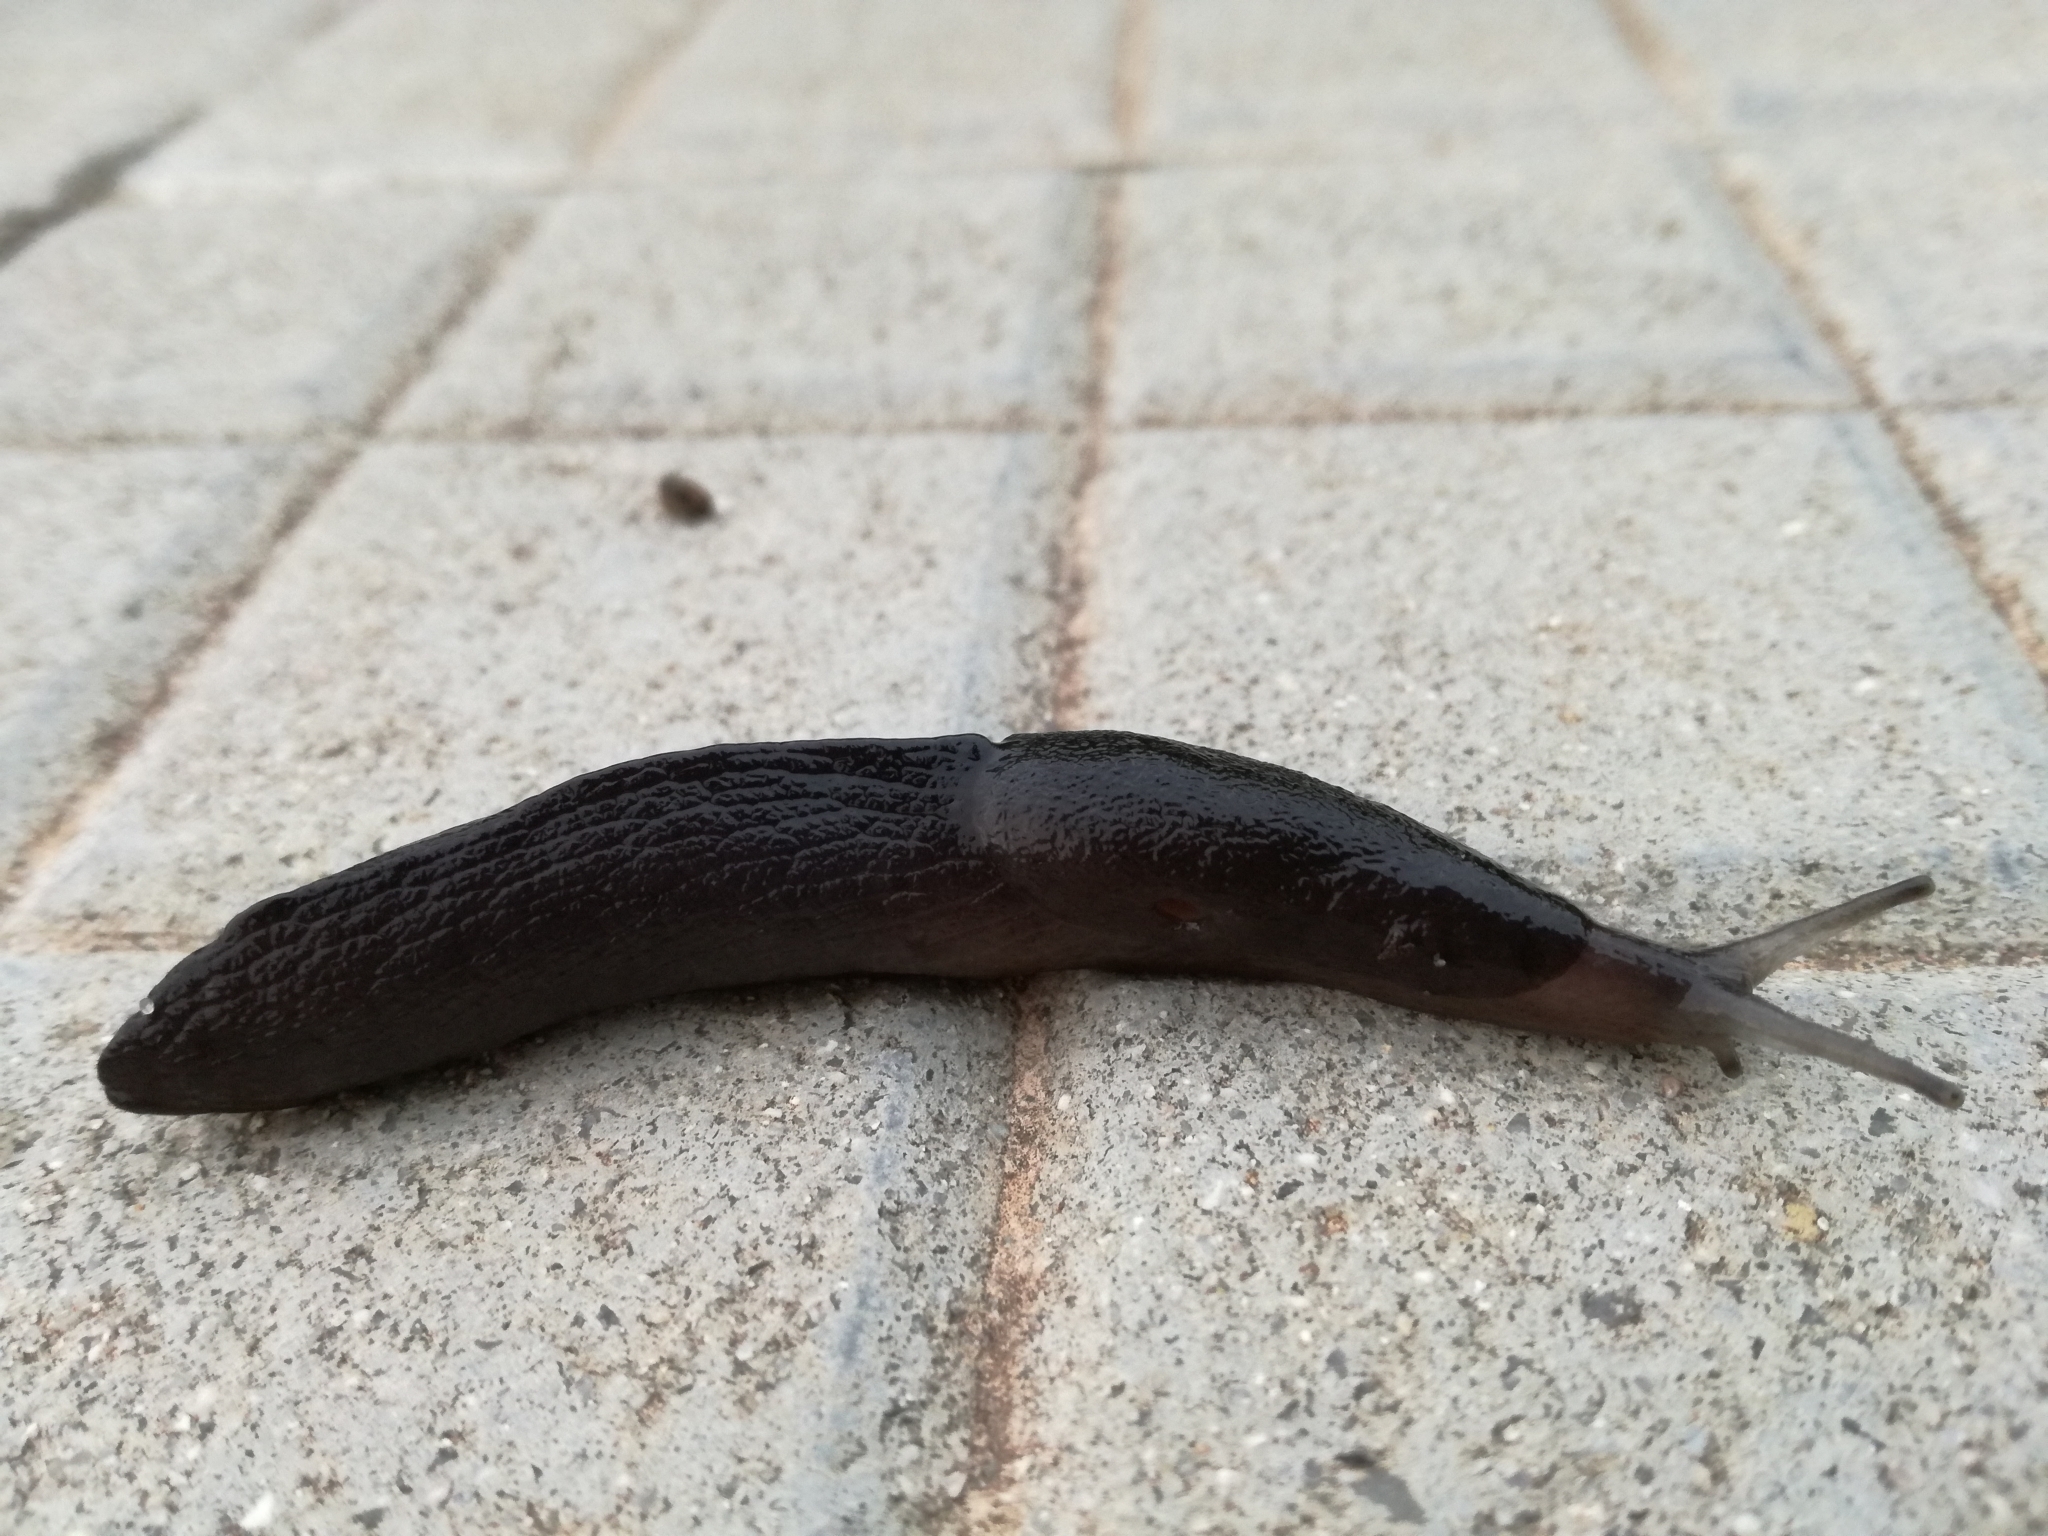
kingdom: Animalia
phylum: Mollusca
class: Gastropoda
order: Stylommatophora
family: Milacidae
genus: Milax
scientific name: Milax nigricans
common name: Black slug
